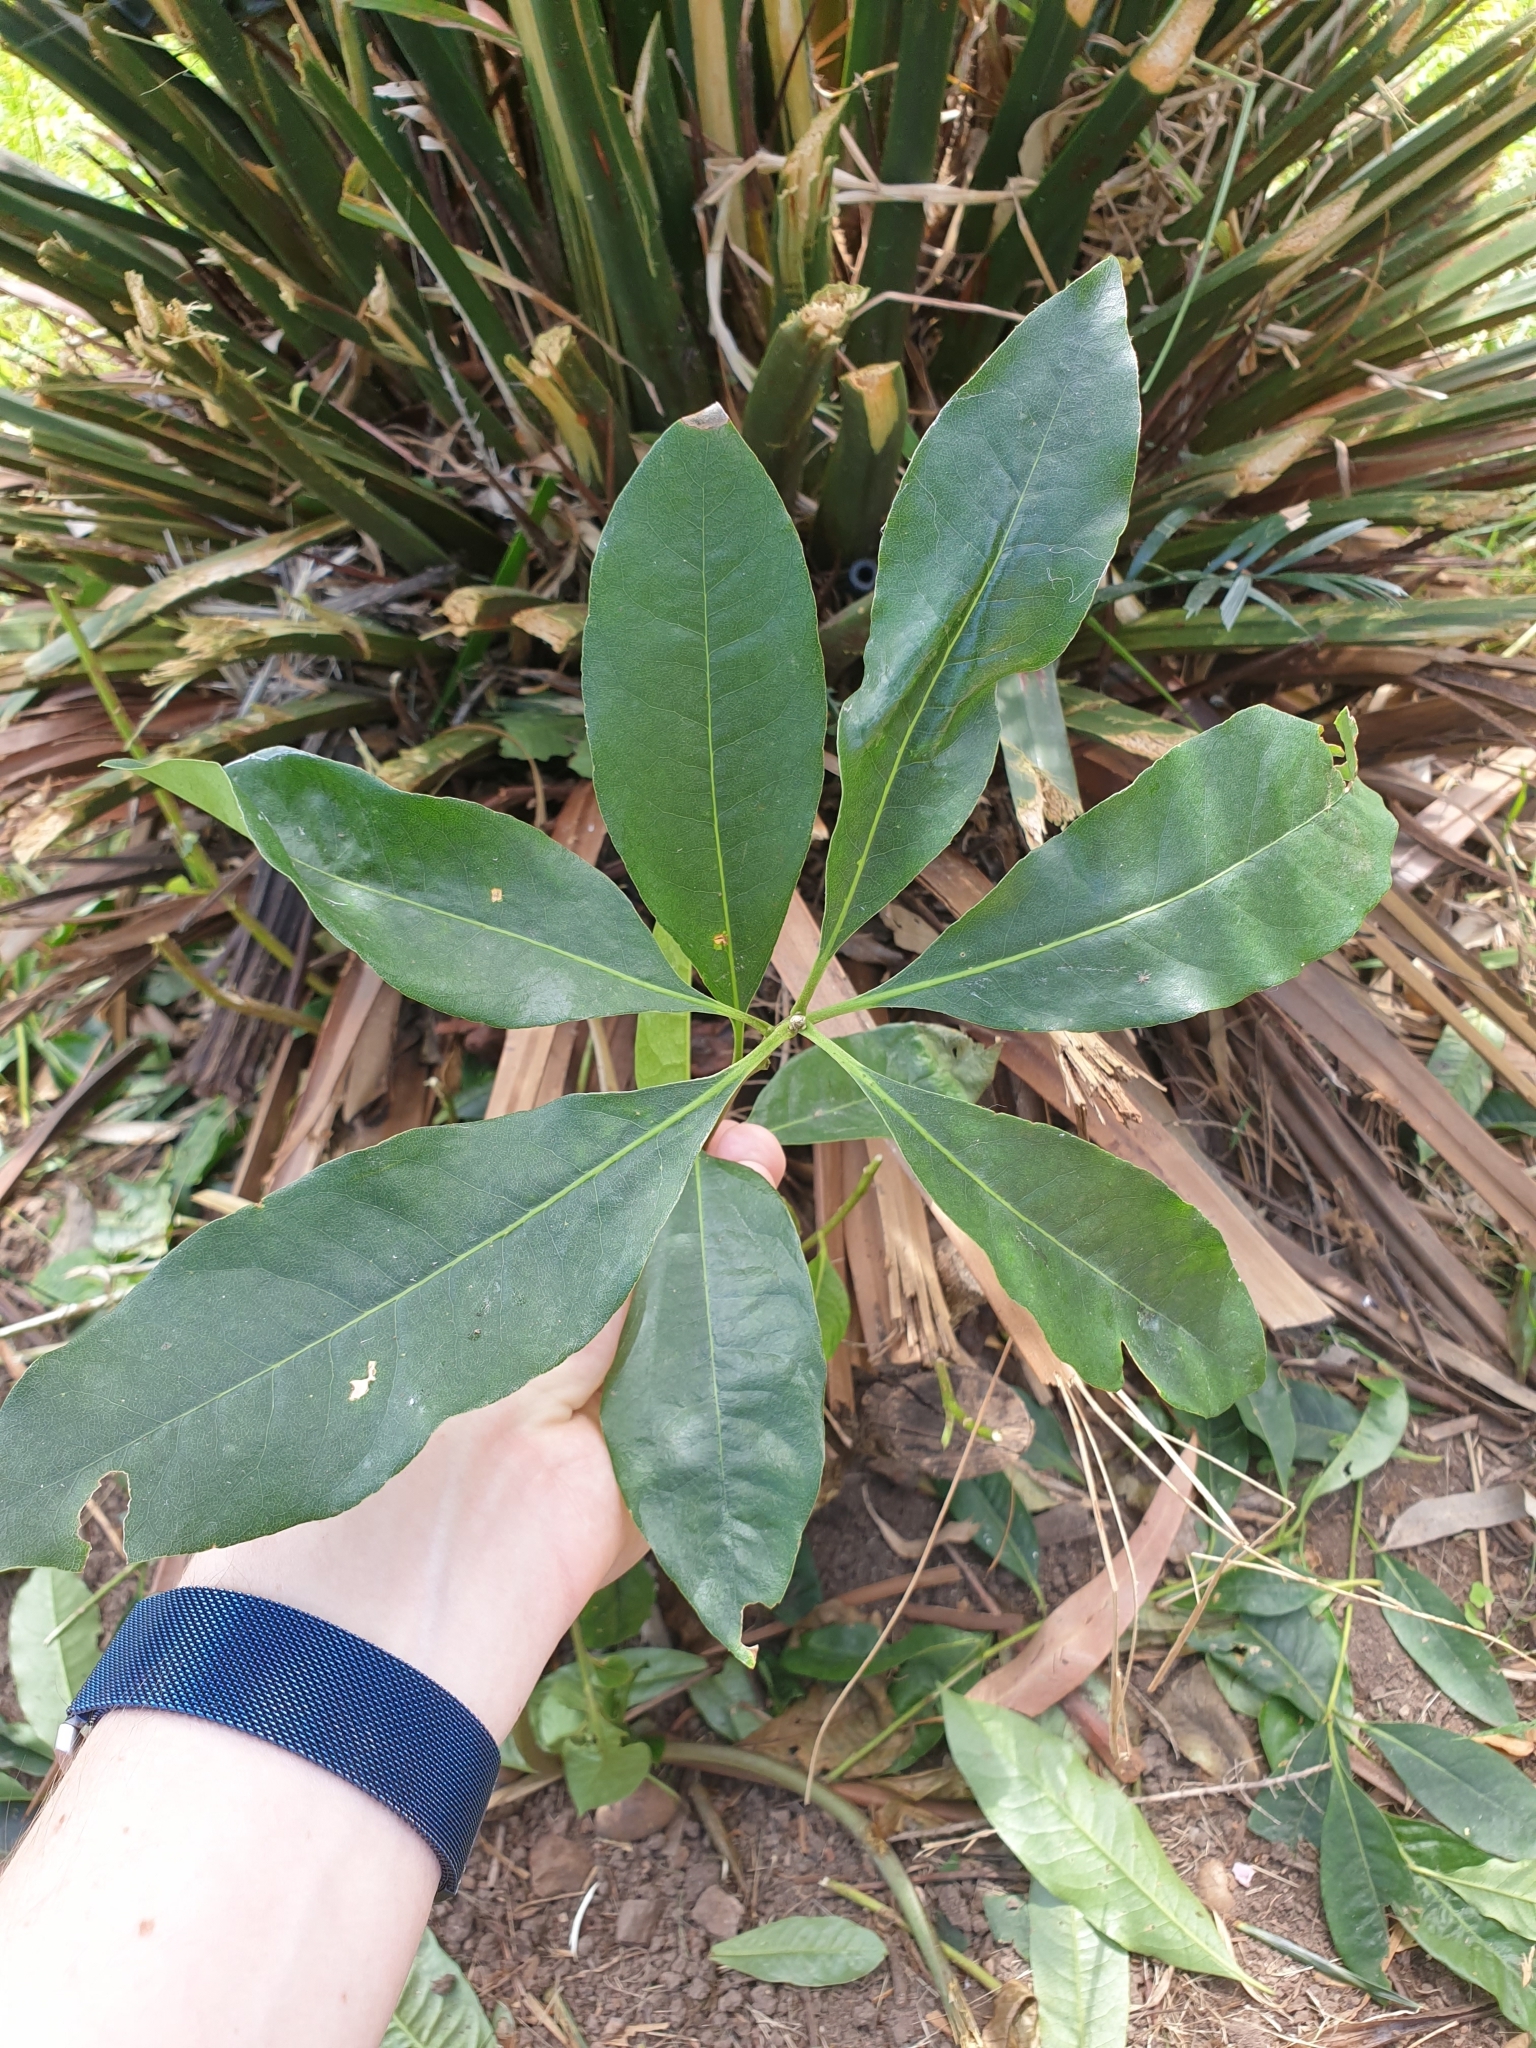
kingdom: Plantae
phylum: Tracheophyta
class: Magnoliopsida
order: Apiales
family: Pittosporaceae
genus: Pittosporum
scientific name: Pittosporum undulatum
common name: Australian cheesewood
